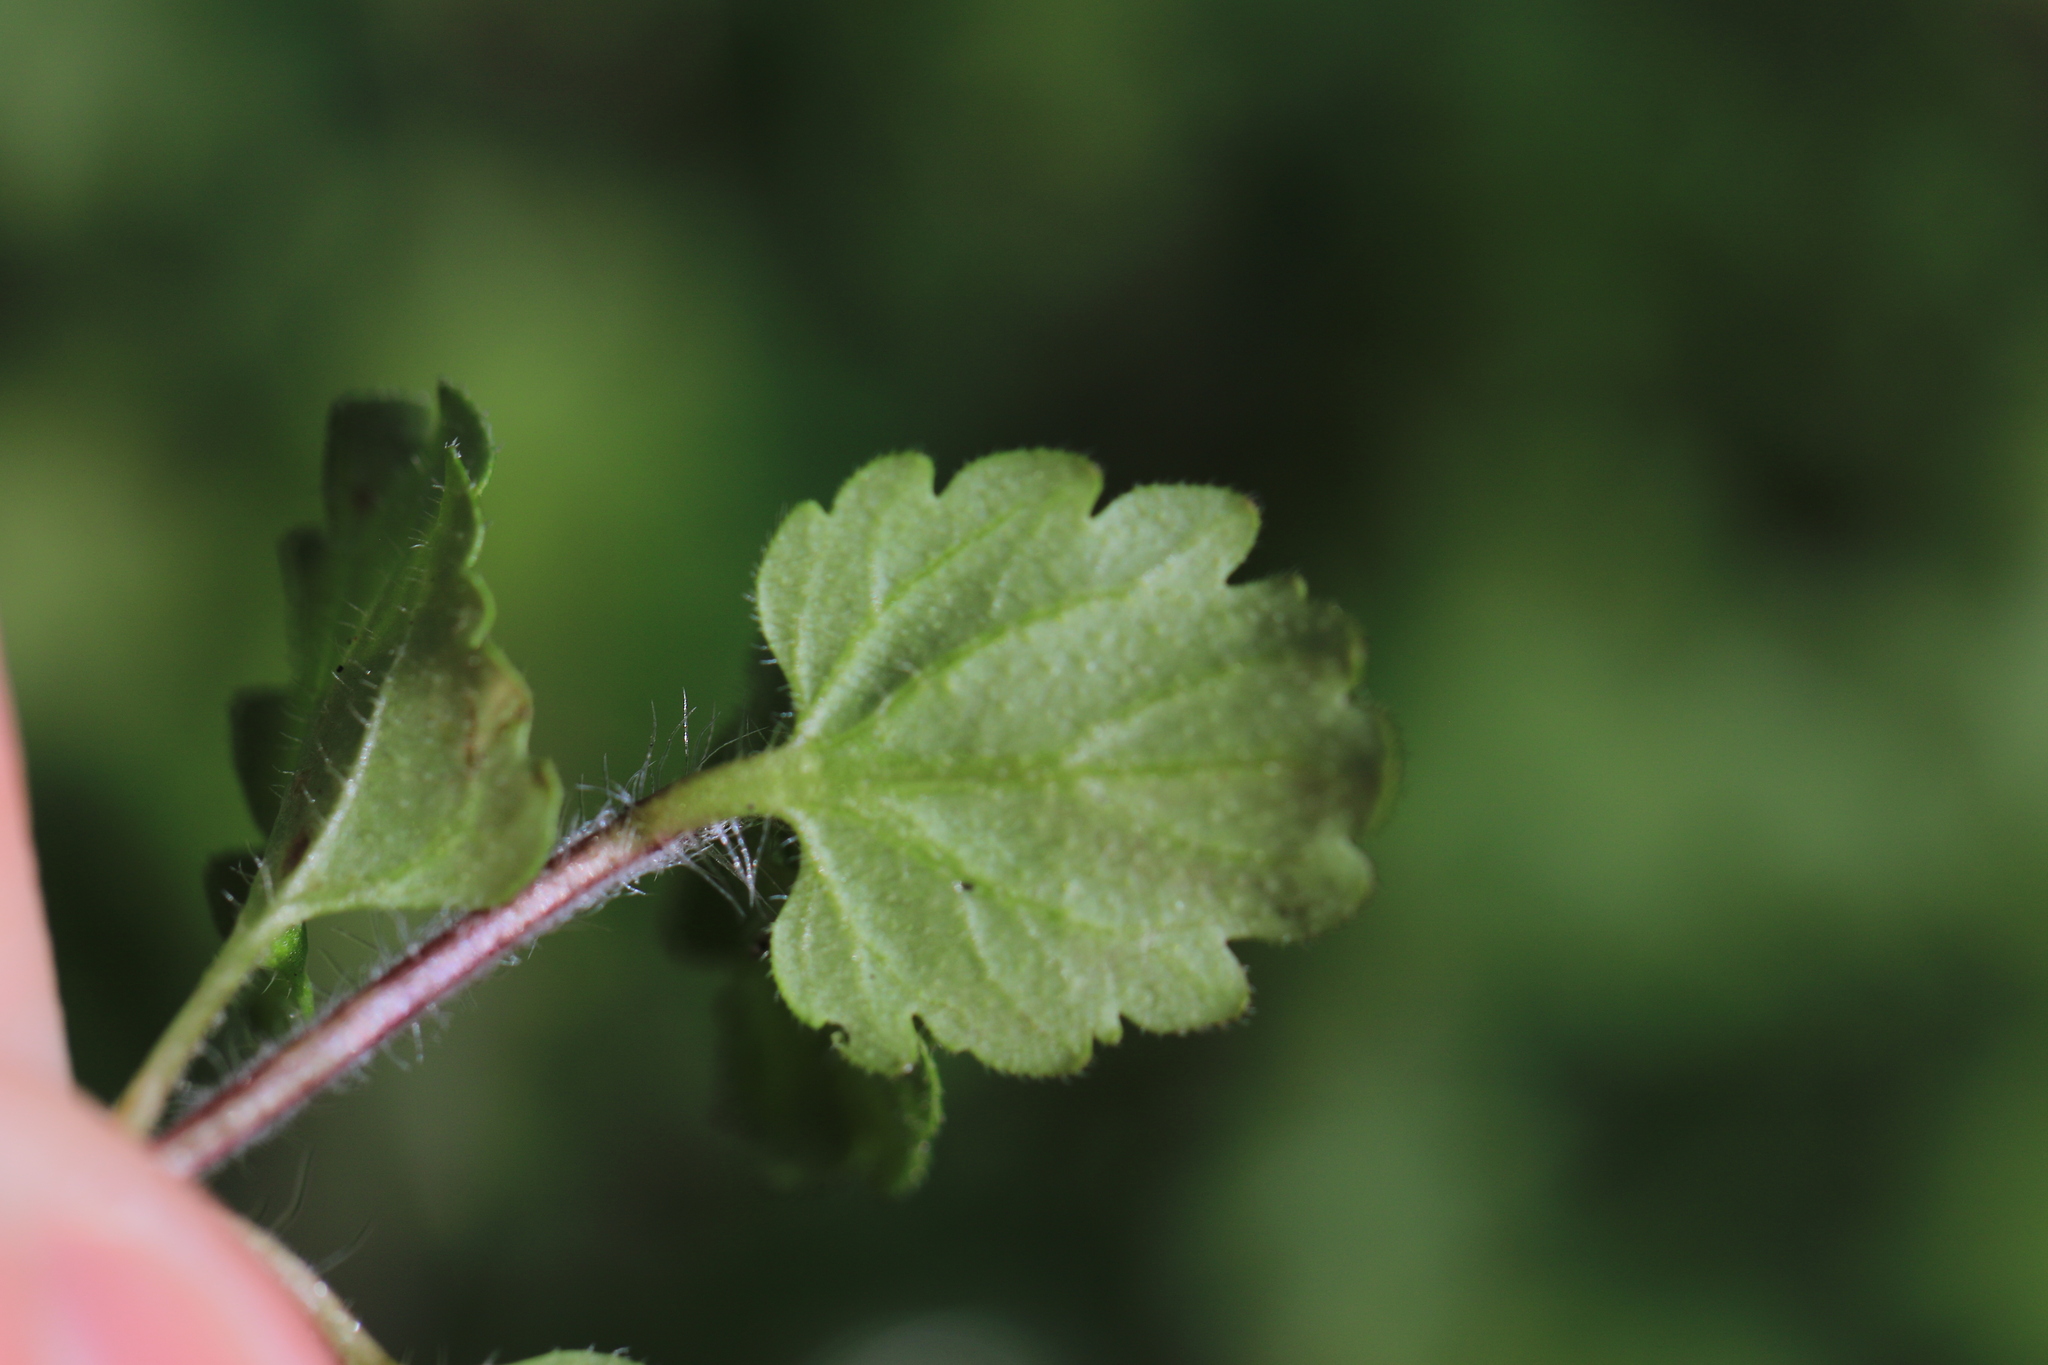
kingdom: Plantae
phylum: Tracheophyta
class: Magnoliopsida
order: Lamiales
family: Plantaginaceae
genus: Veronica
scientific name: Veronica persica
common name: Common field-speedwell
